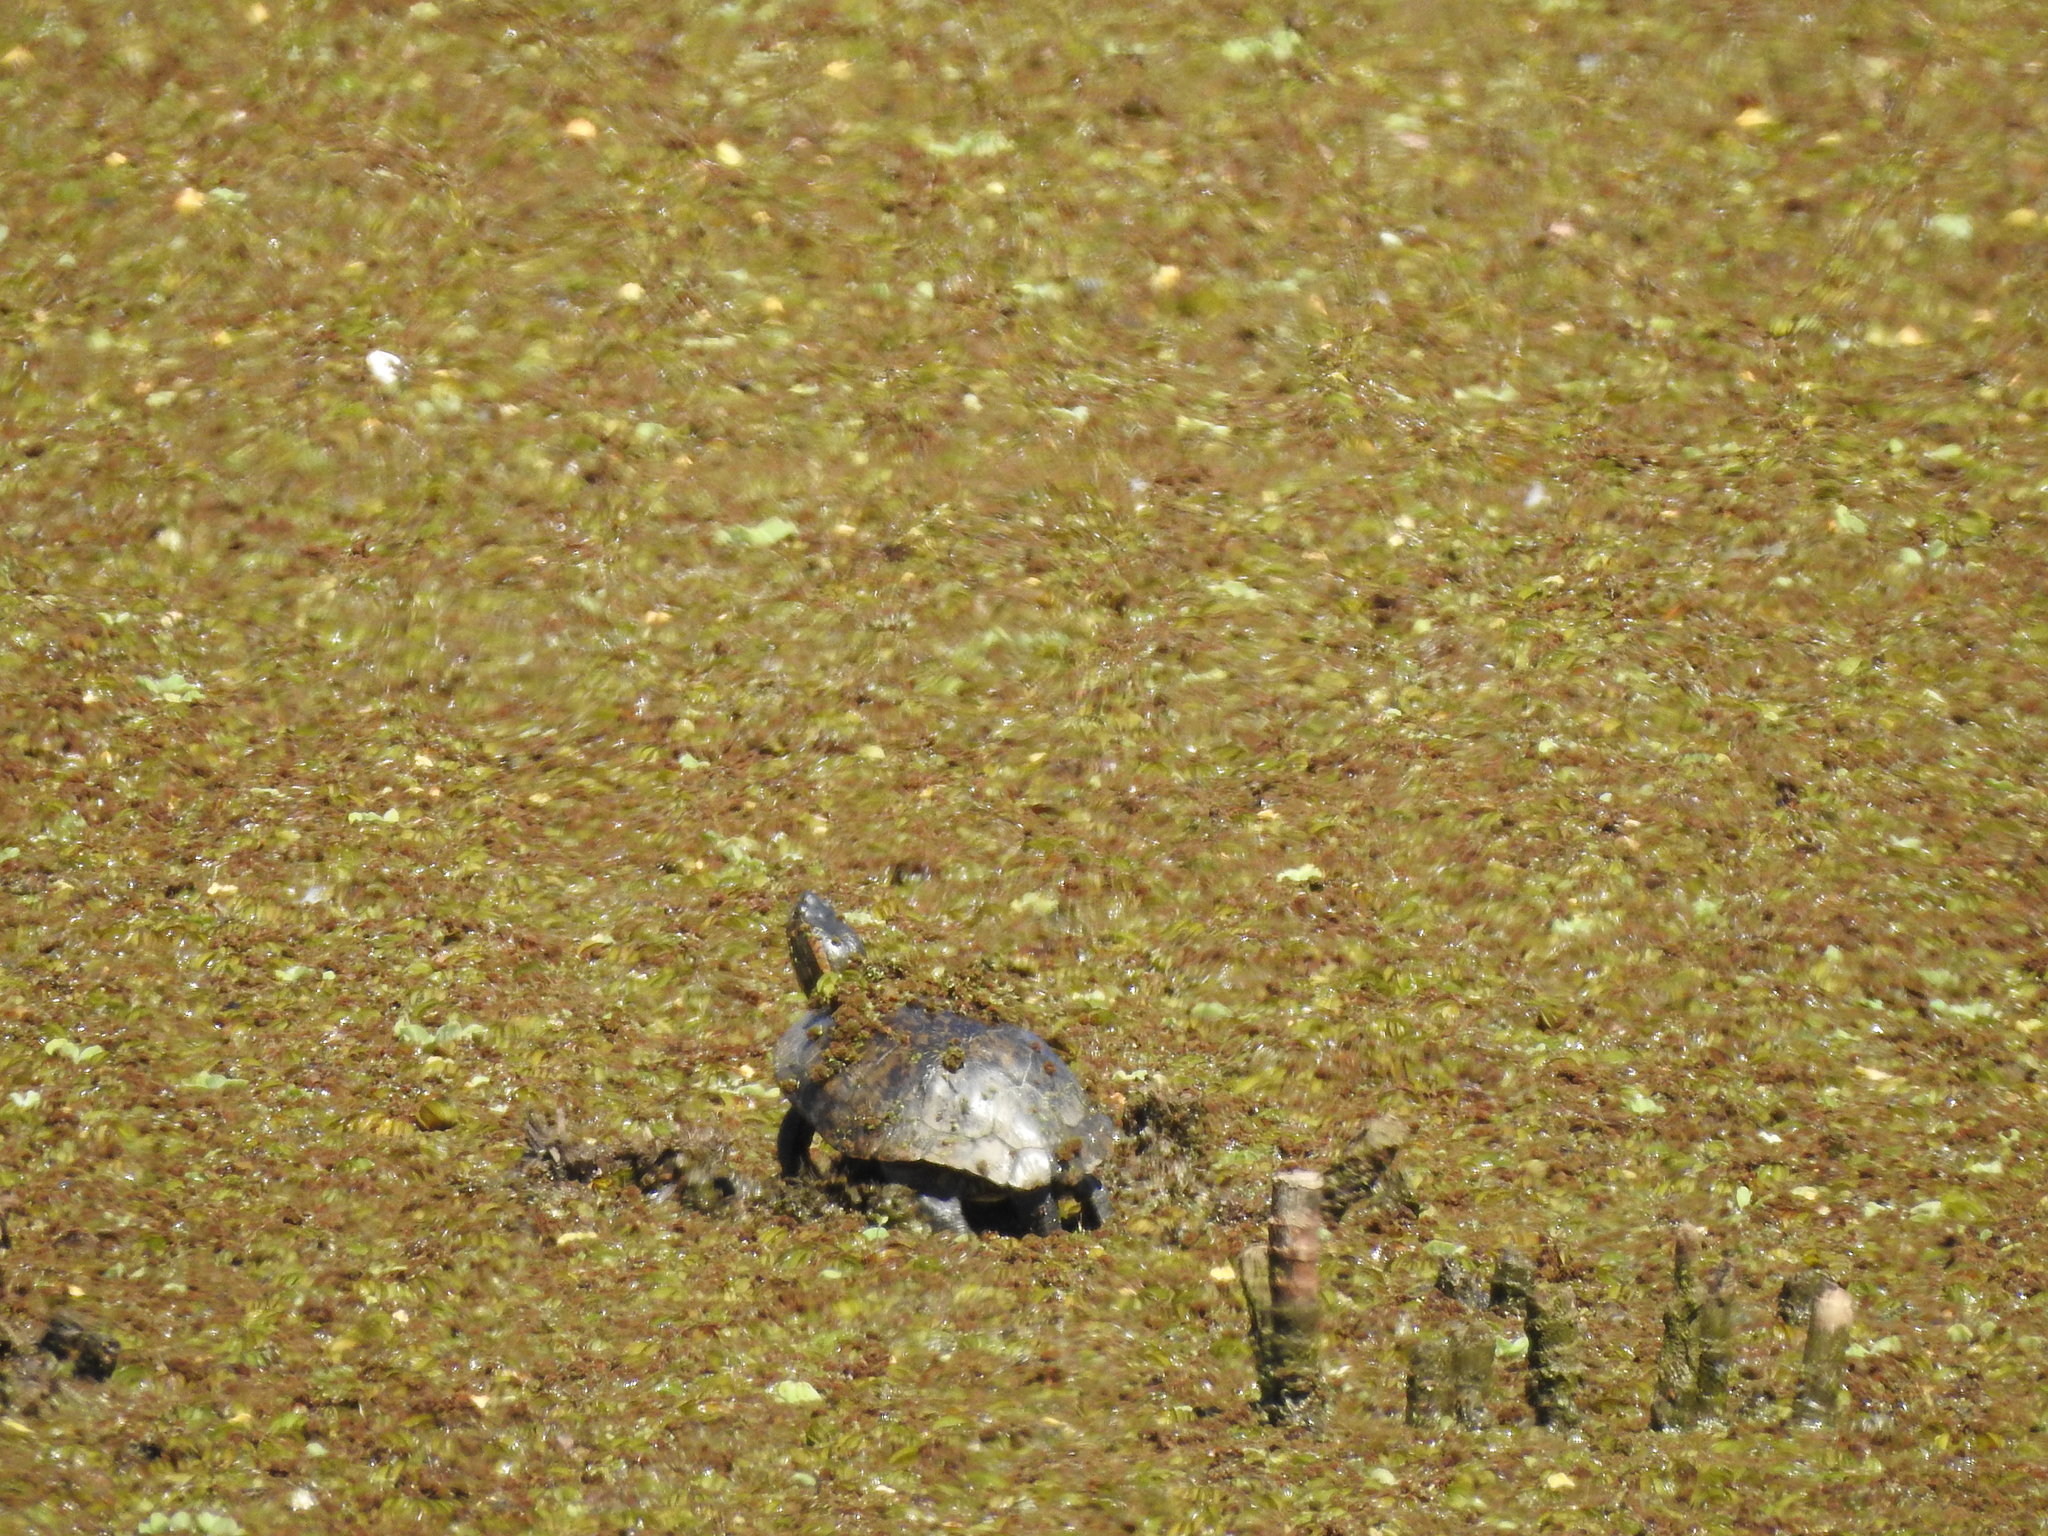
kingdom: Animalia
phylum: Chordata
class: Testudines
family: Emydidae
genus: Trachemys
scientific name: Trachemys dorbigni
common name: Black-bellied slider
